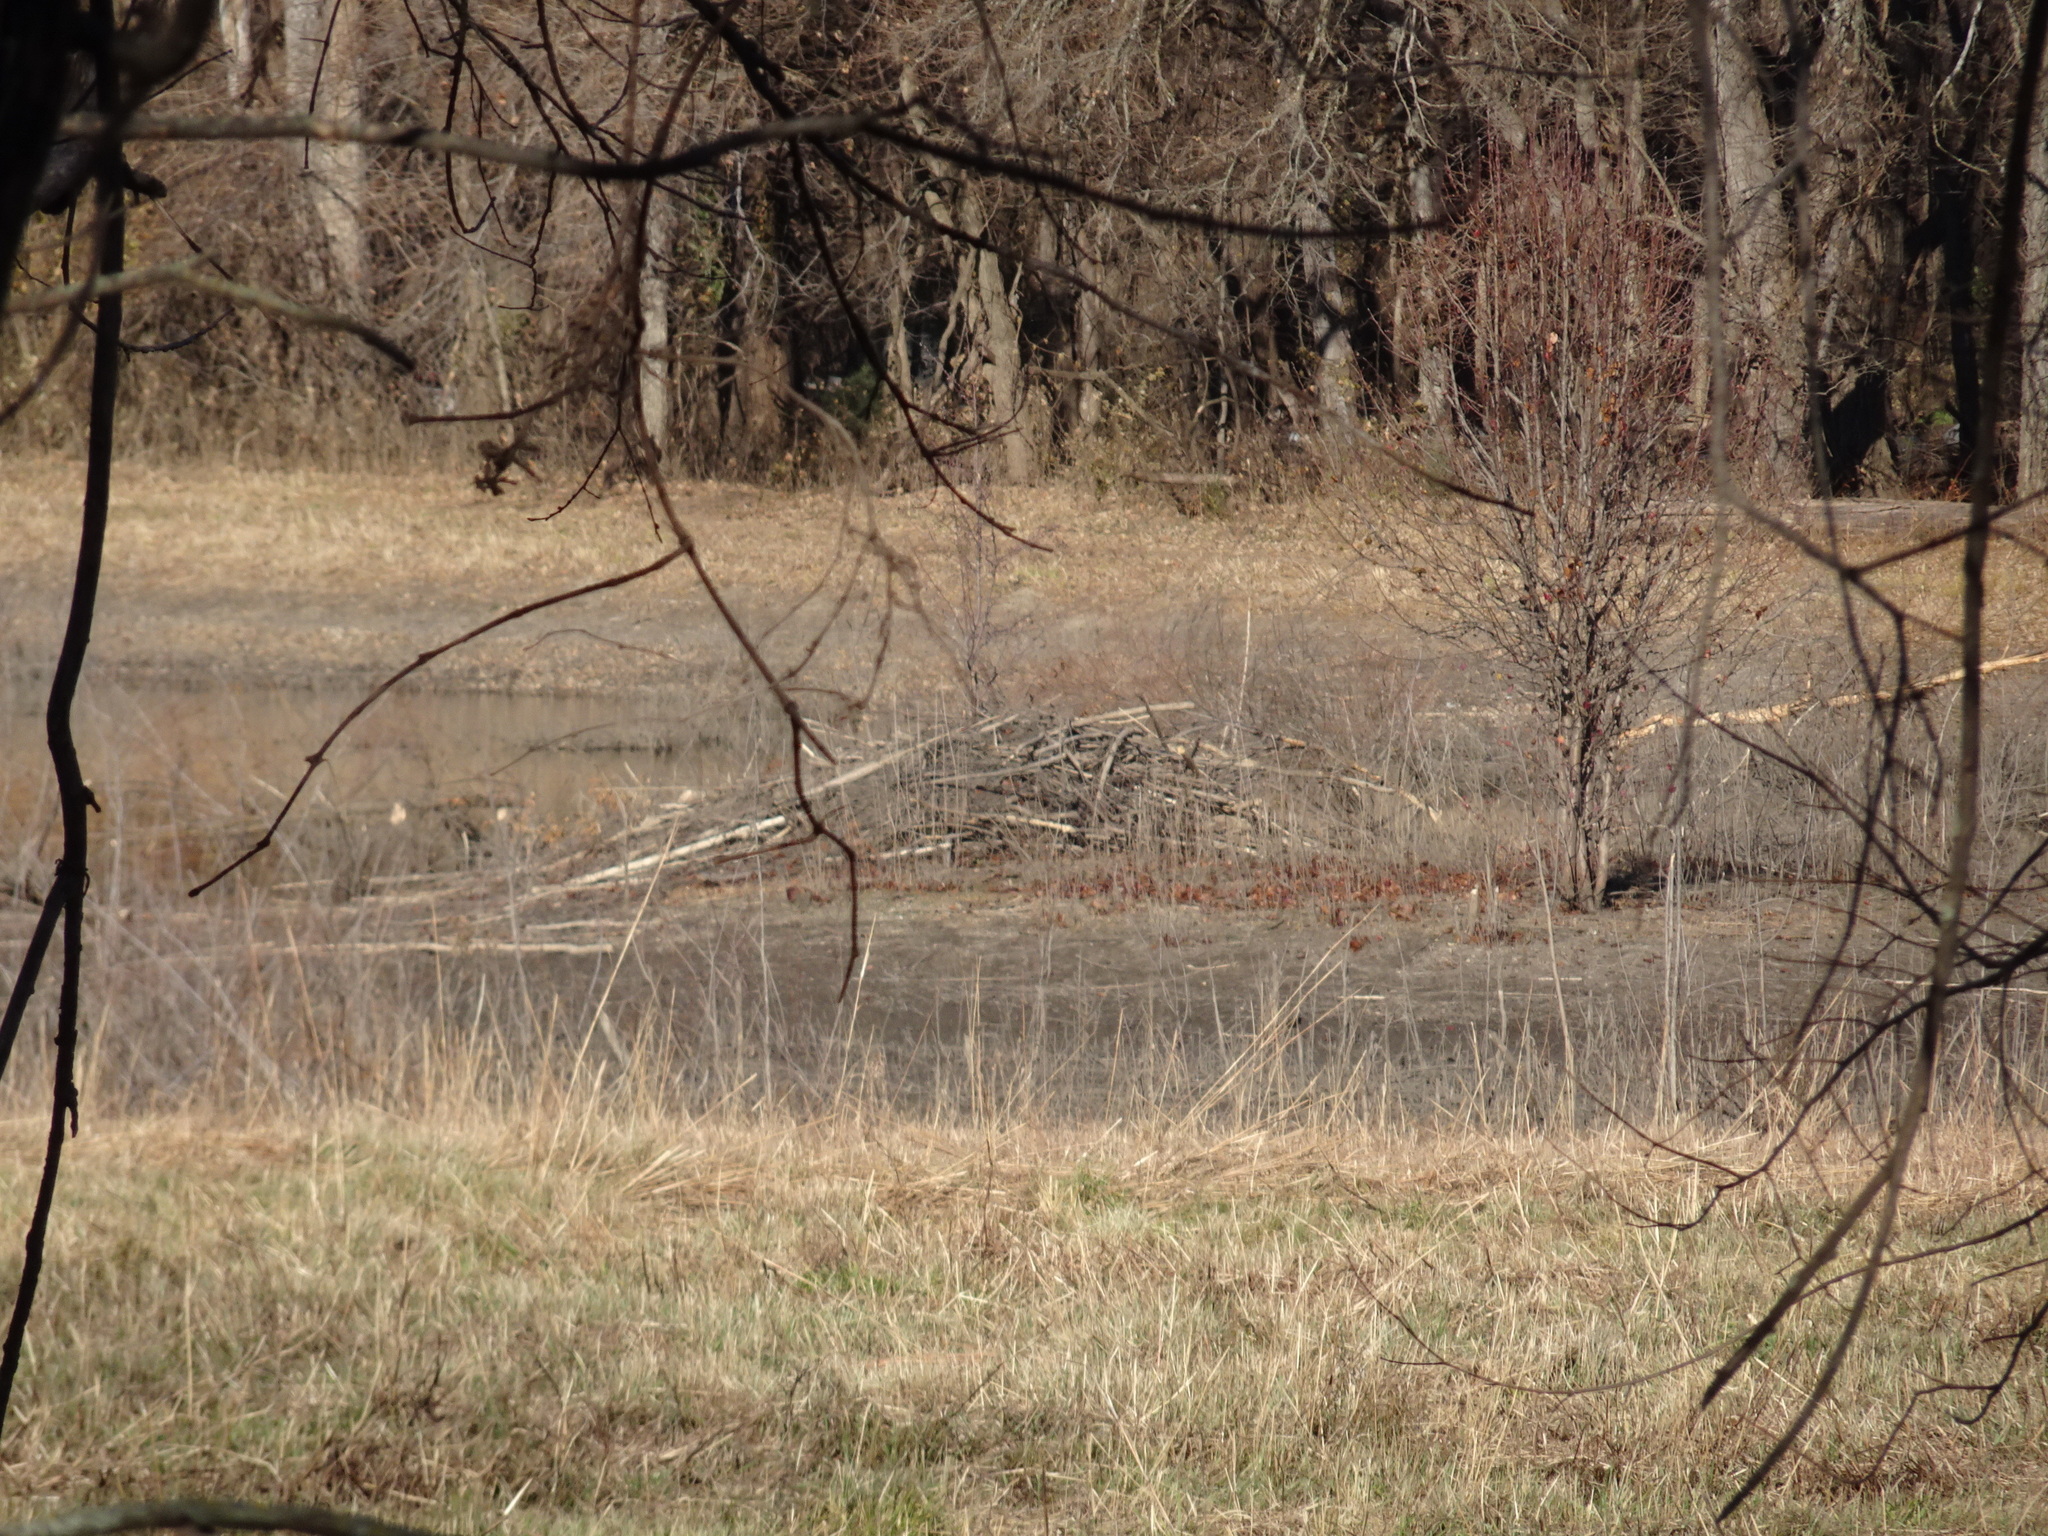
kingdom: Animalia
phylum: Chordata
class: Mammalia
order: Rodentia
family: Castoridae
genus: Castor
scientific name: Castor canadensis
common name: American beaver
